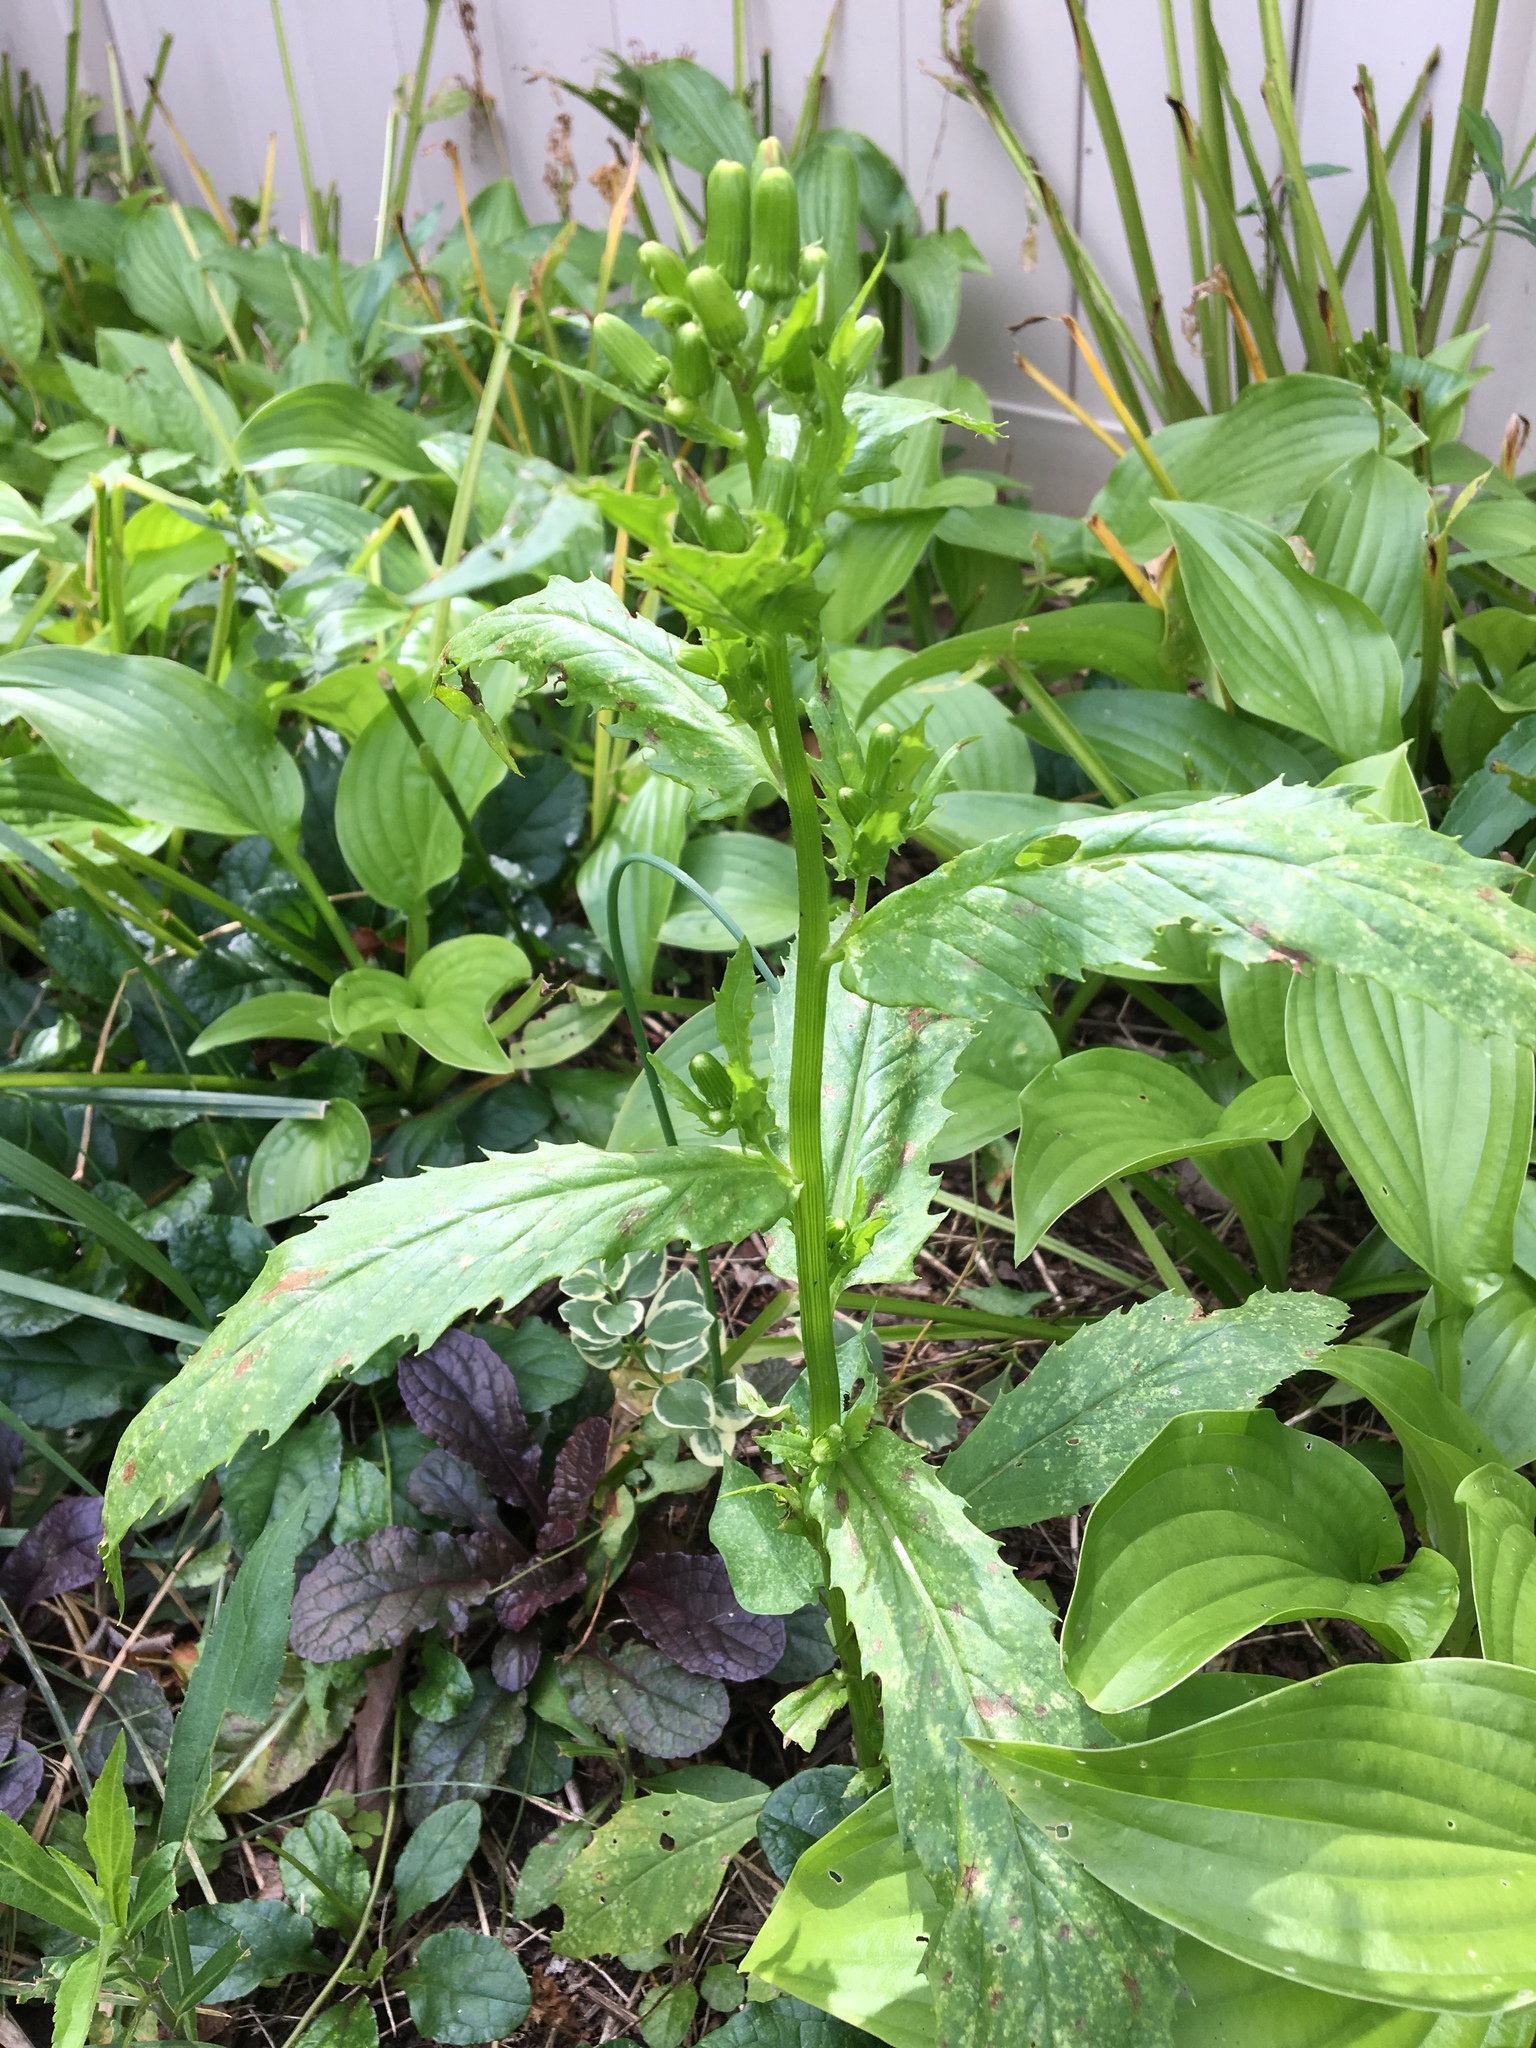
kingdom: Plantae
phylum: Tracheophyta
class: Magnoliopsida
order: Asterales
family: Asteraceae
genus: Erechtites
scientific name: Erechtites hieraciifolius
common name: American burnweed
